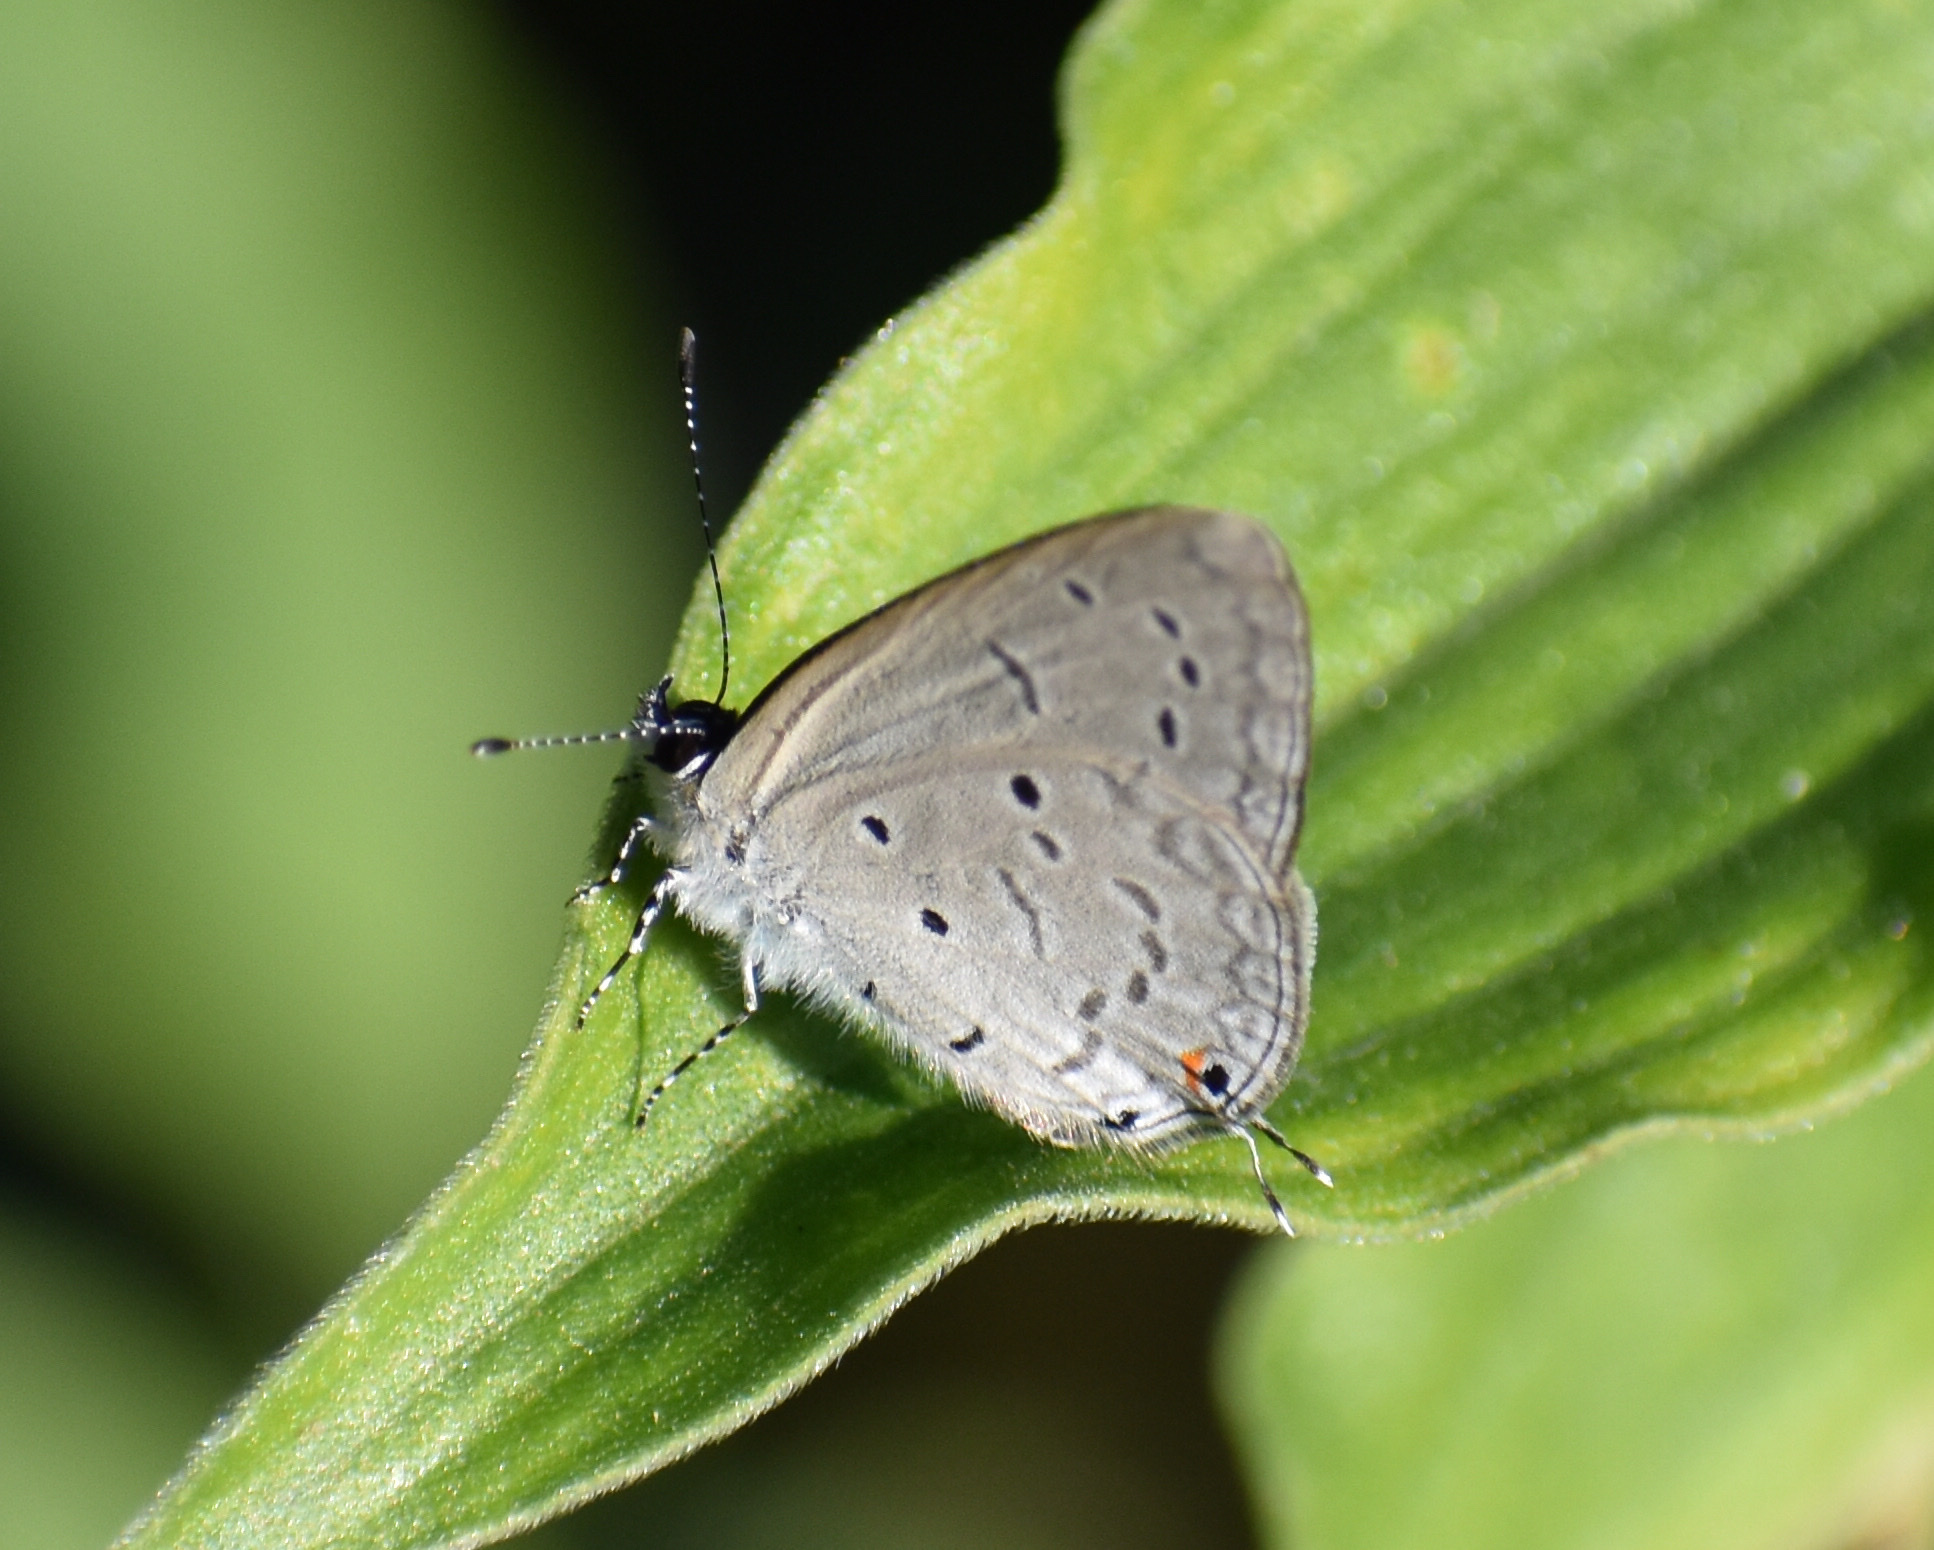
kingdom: Animalia
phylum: Arthropoda
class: Insecta
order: Lepidoptera
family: Lycaenidae
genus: Eicochrysops
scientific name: Eicochrysops hippocrates
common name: White-tipped blue
